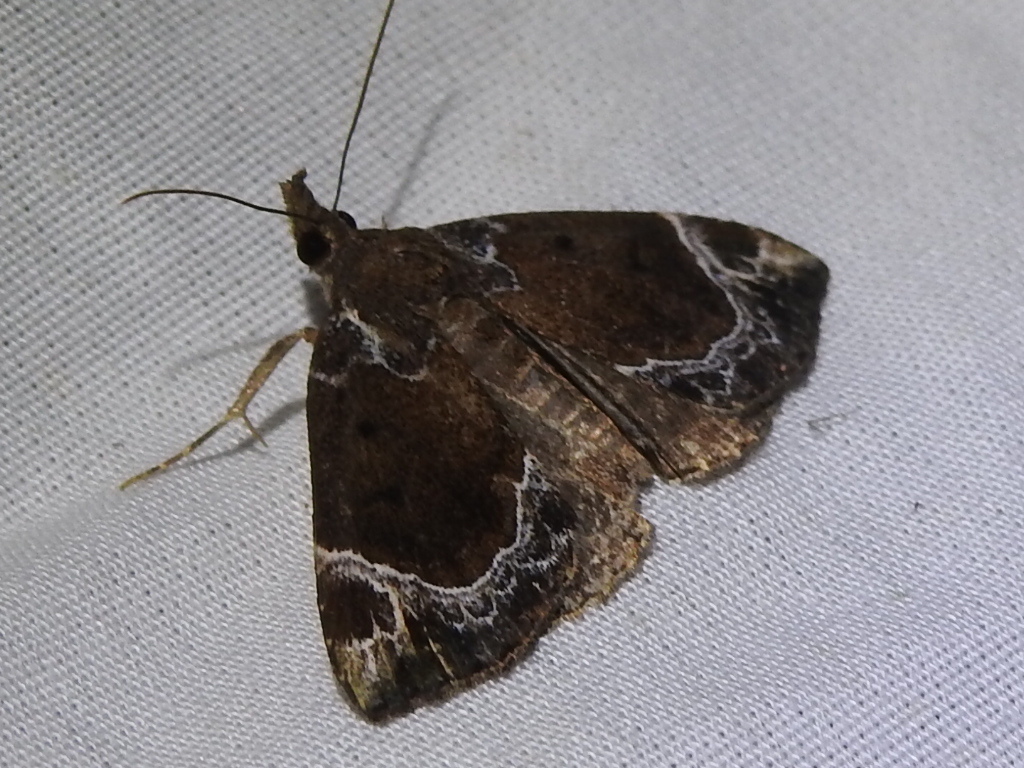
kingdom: Animalia
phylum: Arthropoda
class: Insecta
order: Lepidoptera
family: Erebidae
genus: Hypena
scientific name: Hypena abalienalis
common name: White-lined snout
